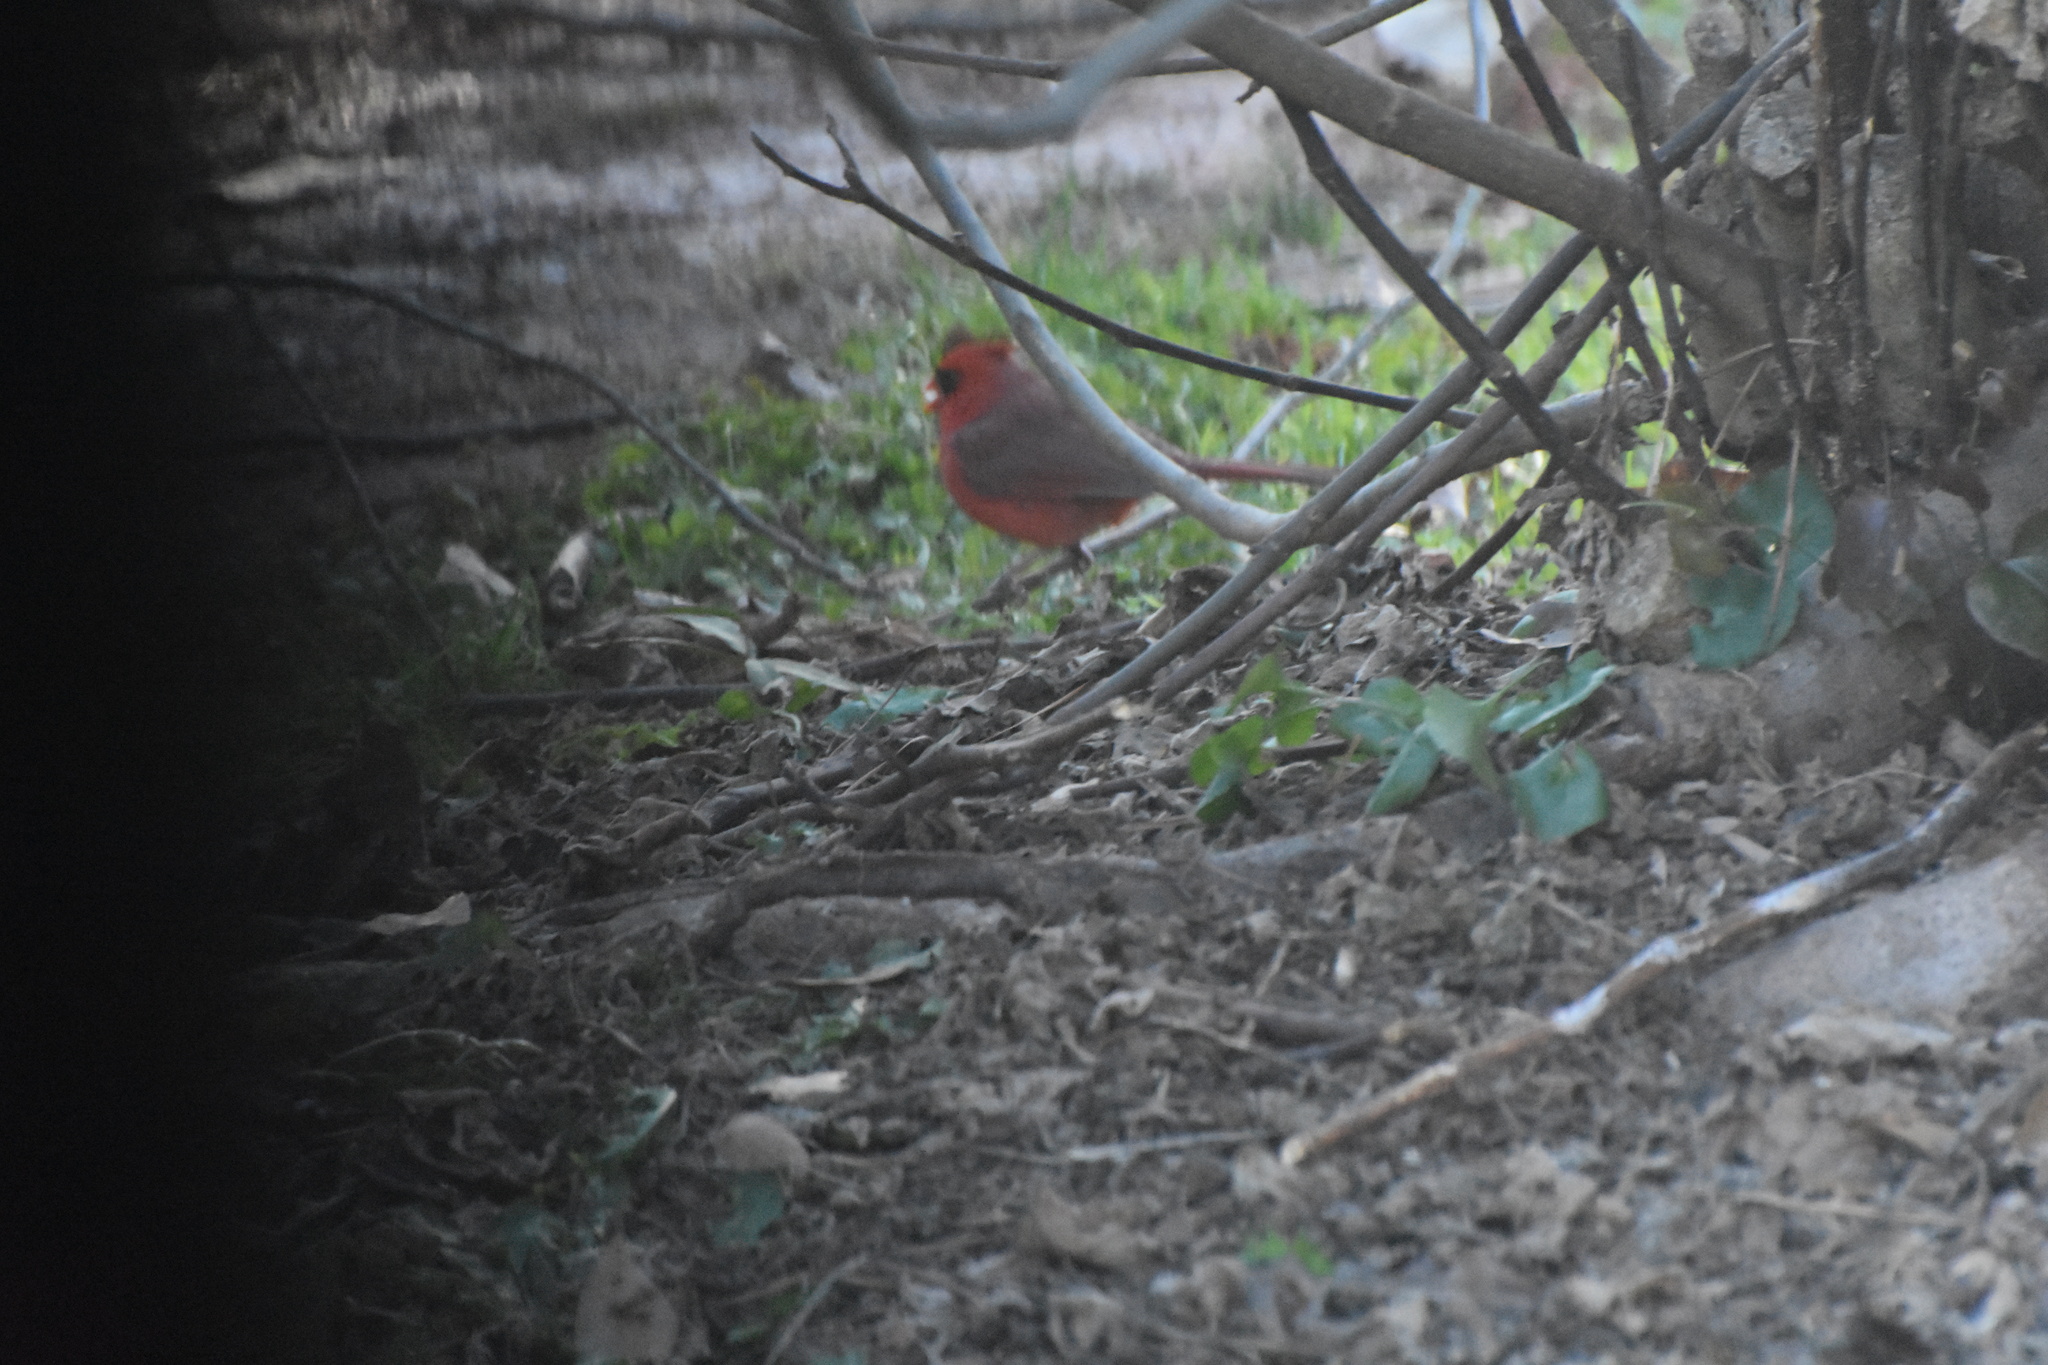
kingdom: Animalia
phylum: Chordata
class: Aves
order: Passeriformes
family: Cardinalidae
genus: Cardinalis
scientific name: Cardinalis cardinalis
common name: Northern cardinal
